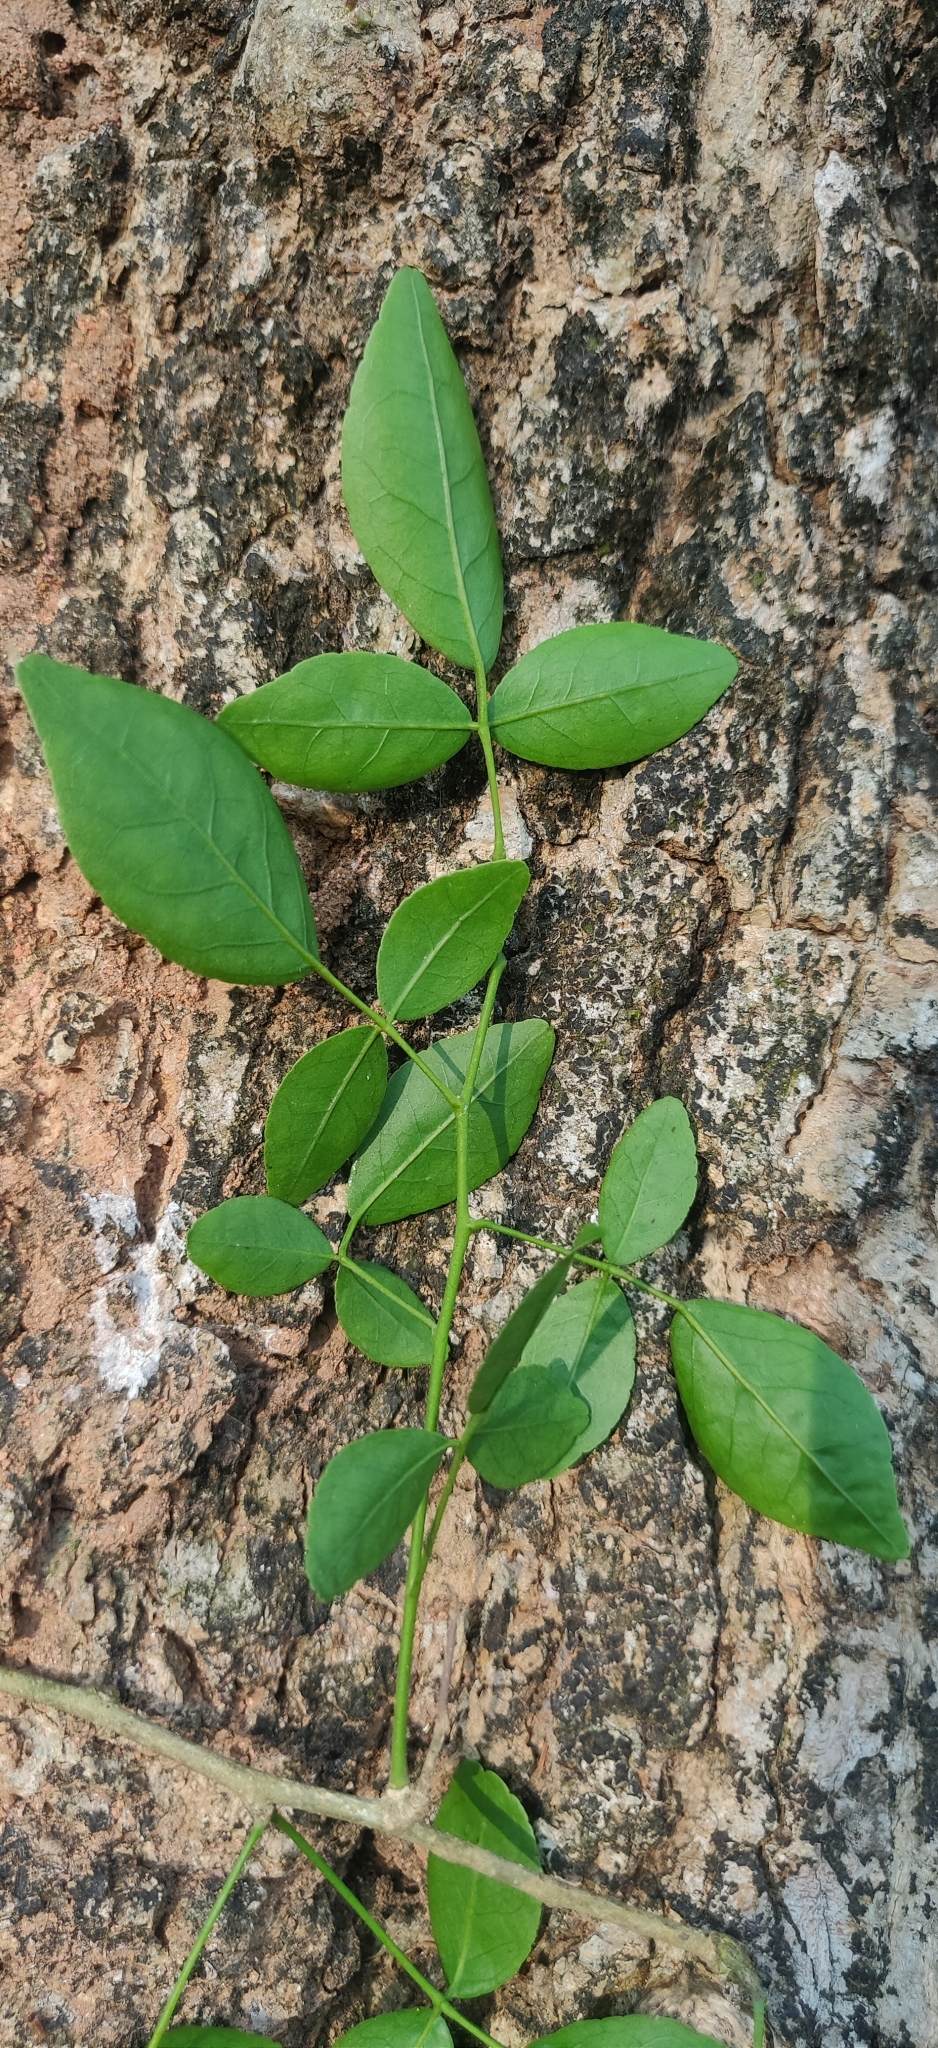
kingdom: Plantae
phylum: Tracheophyta
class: Magnoliopsida
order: Sapindales
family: Rutaceae
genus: Aegle
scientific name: Aegle marmelos
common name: Bael
